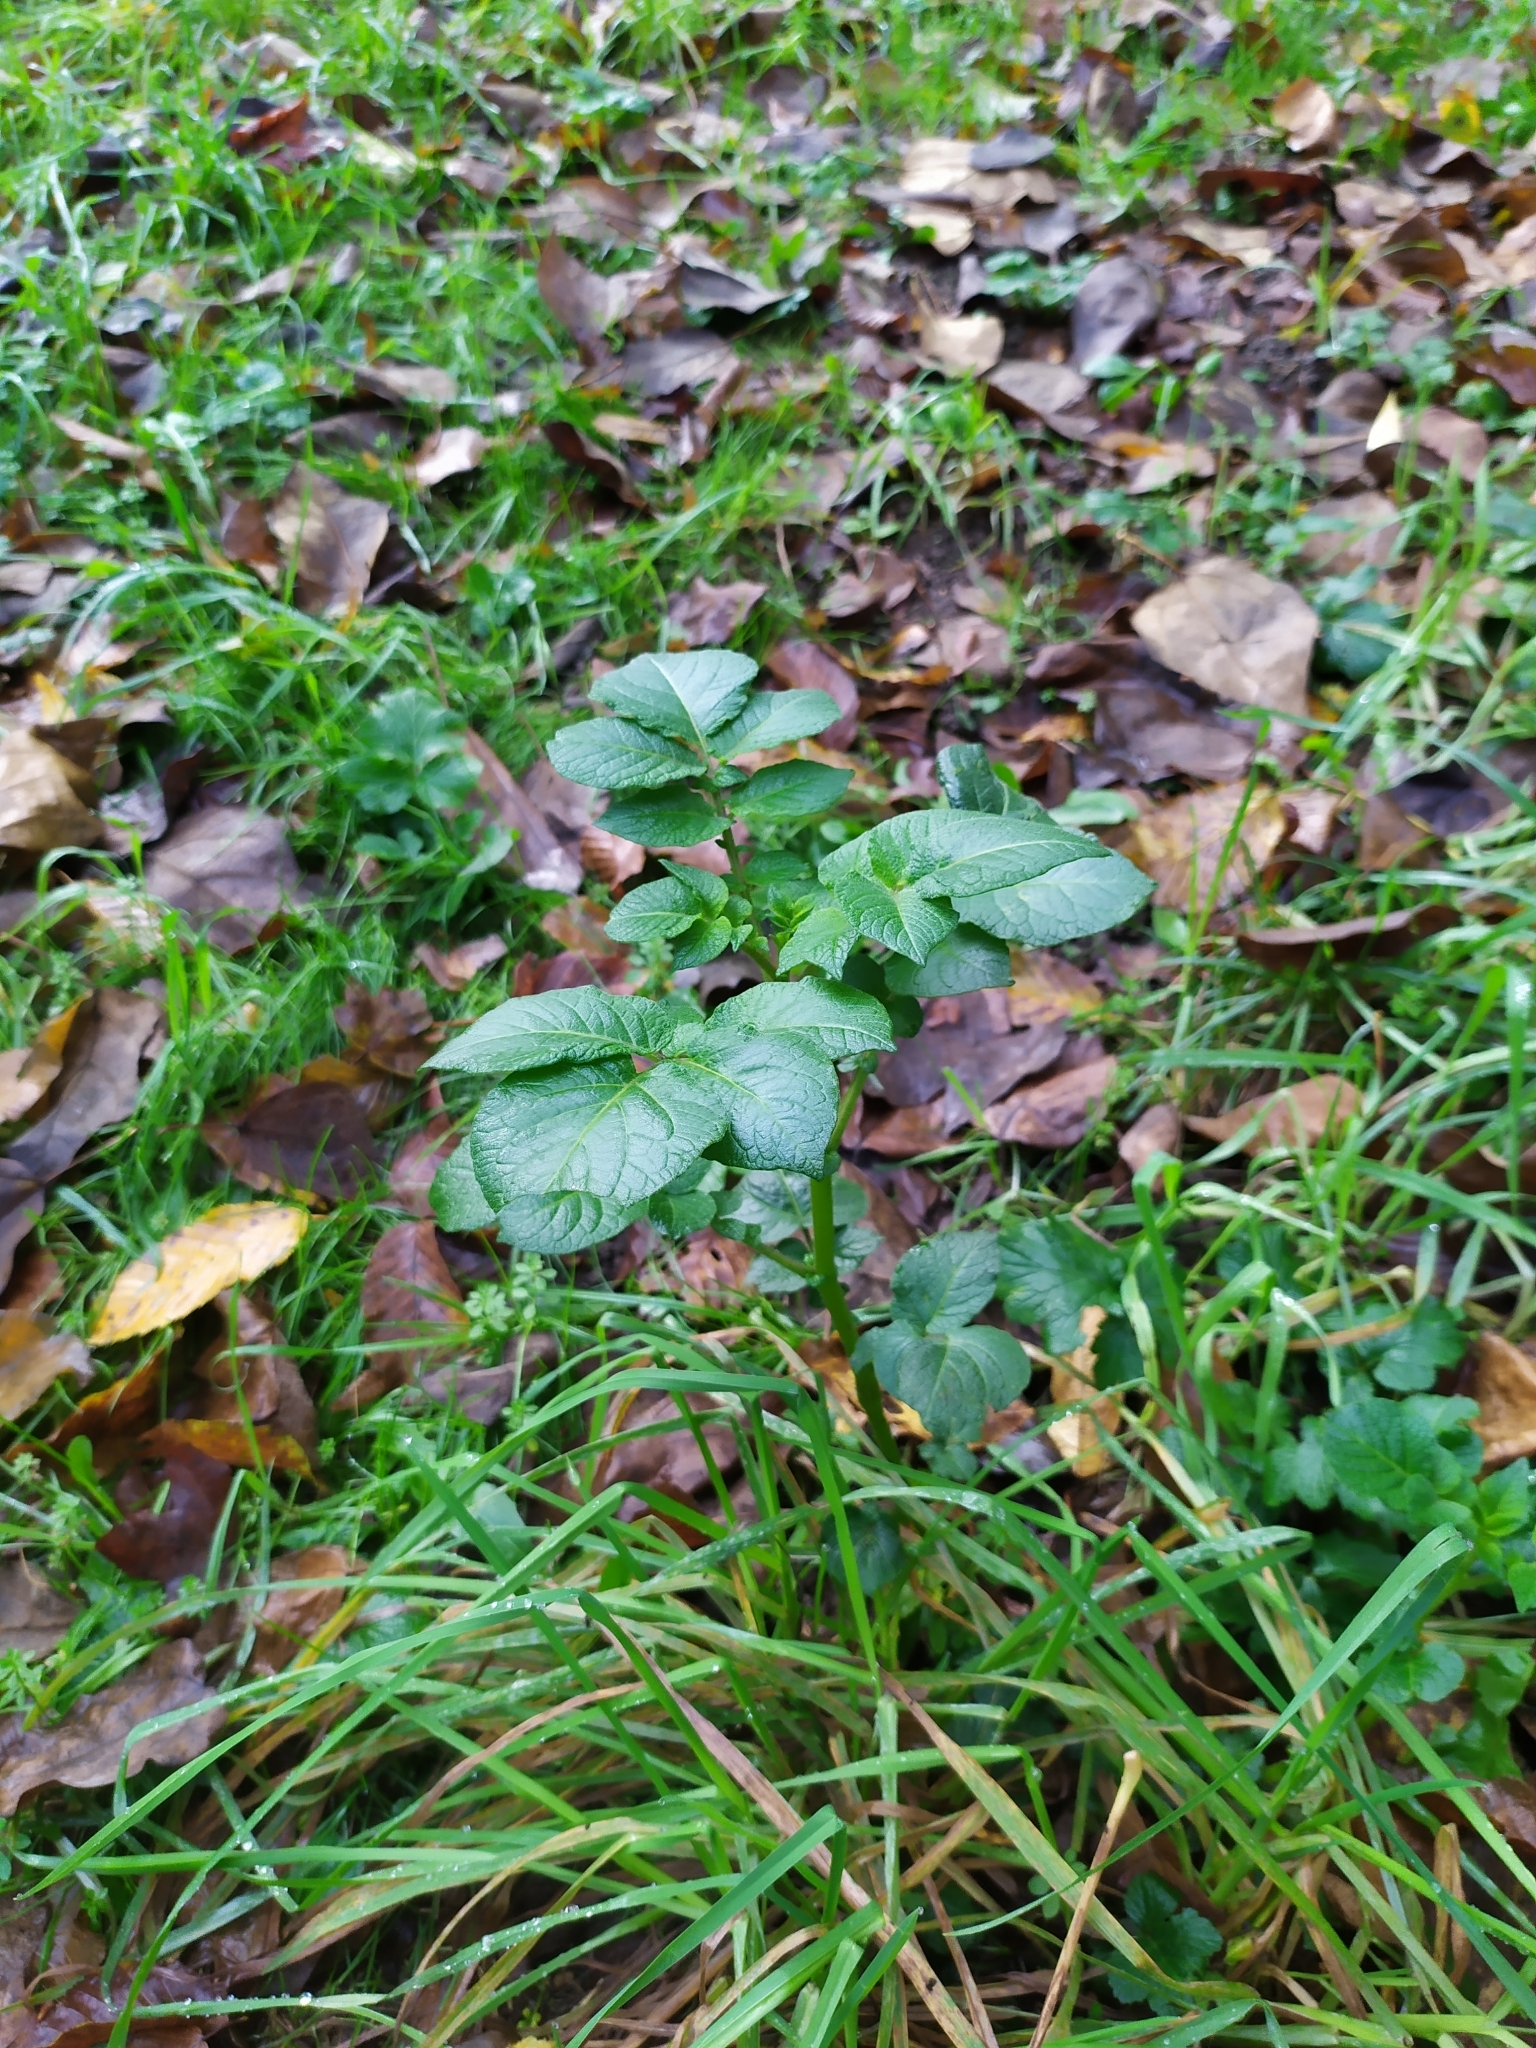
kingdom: Plantae
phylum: Tracheophyta
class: Magnoliopsida
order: Solanales
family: Solanaceae
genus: Solanum
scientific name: Solanum tuberosum
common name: Potato
